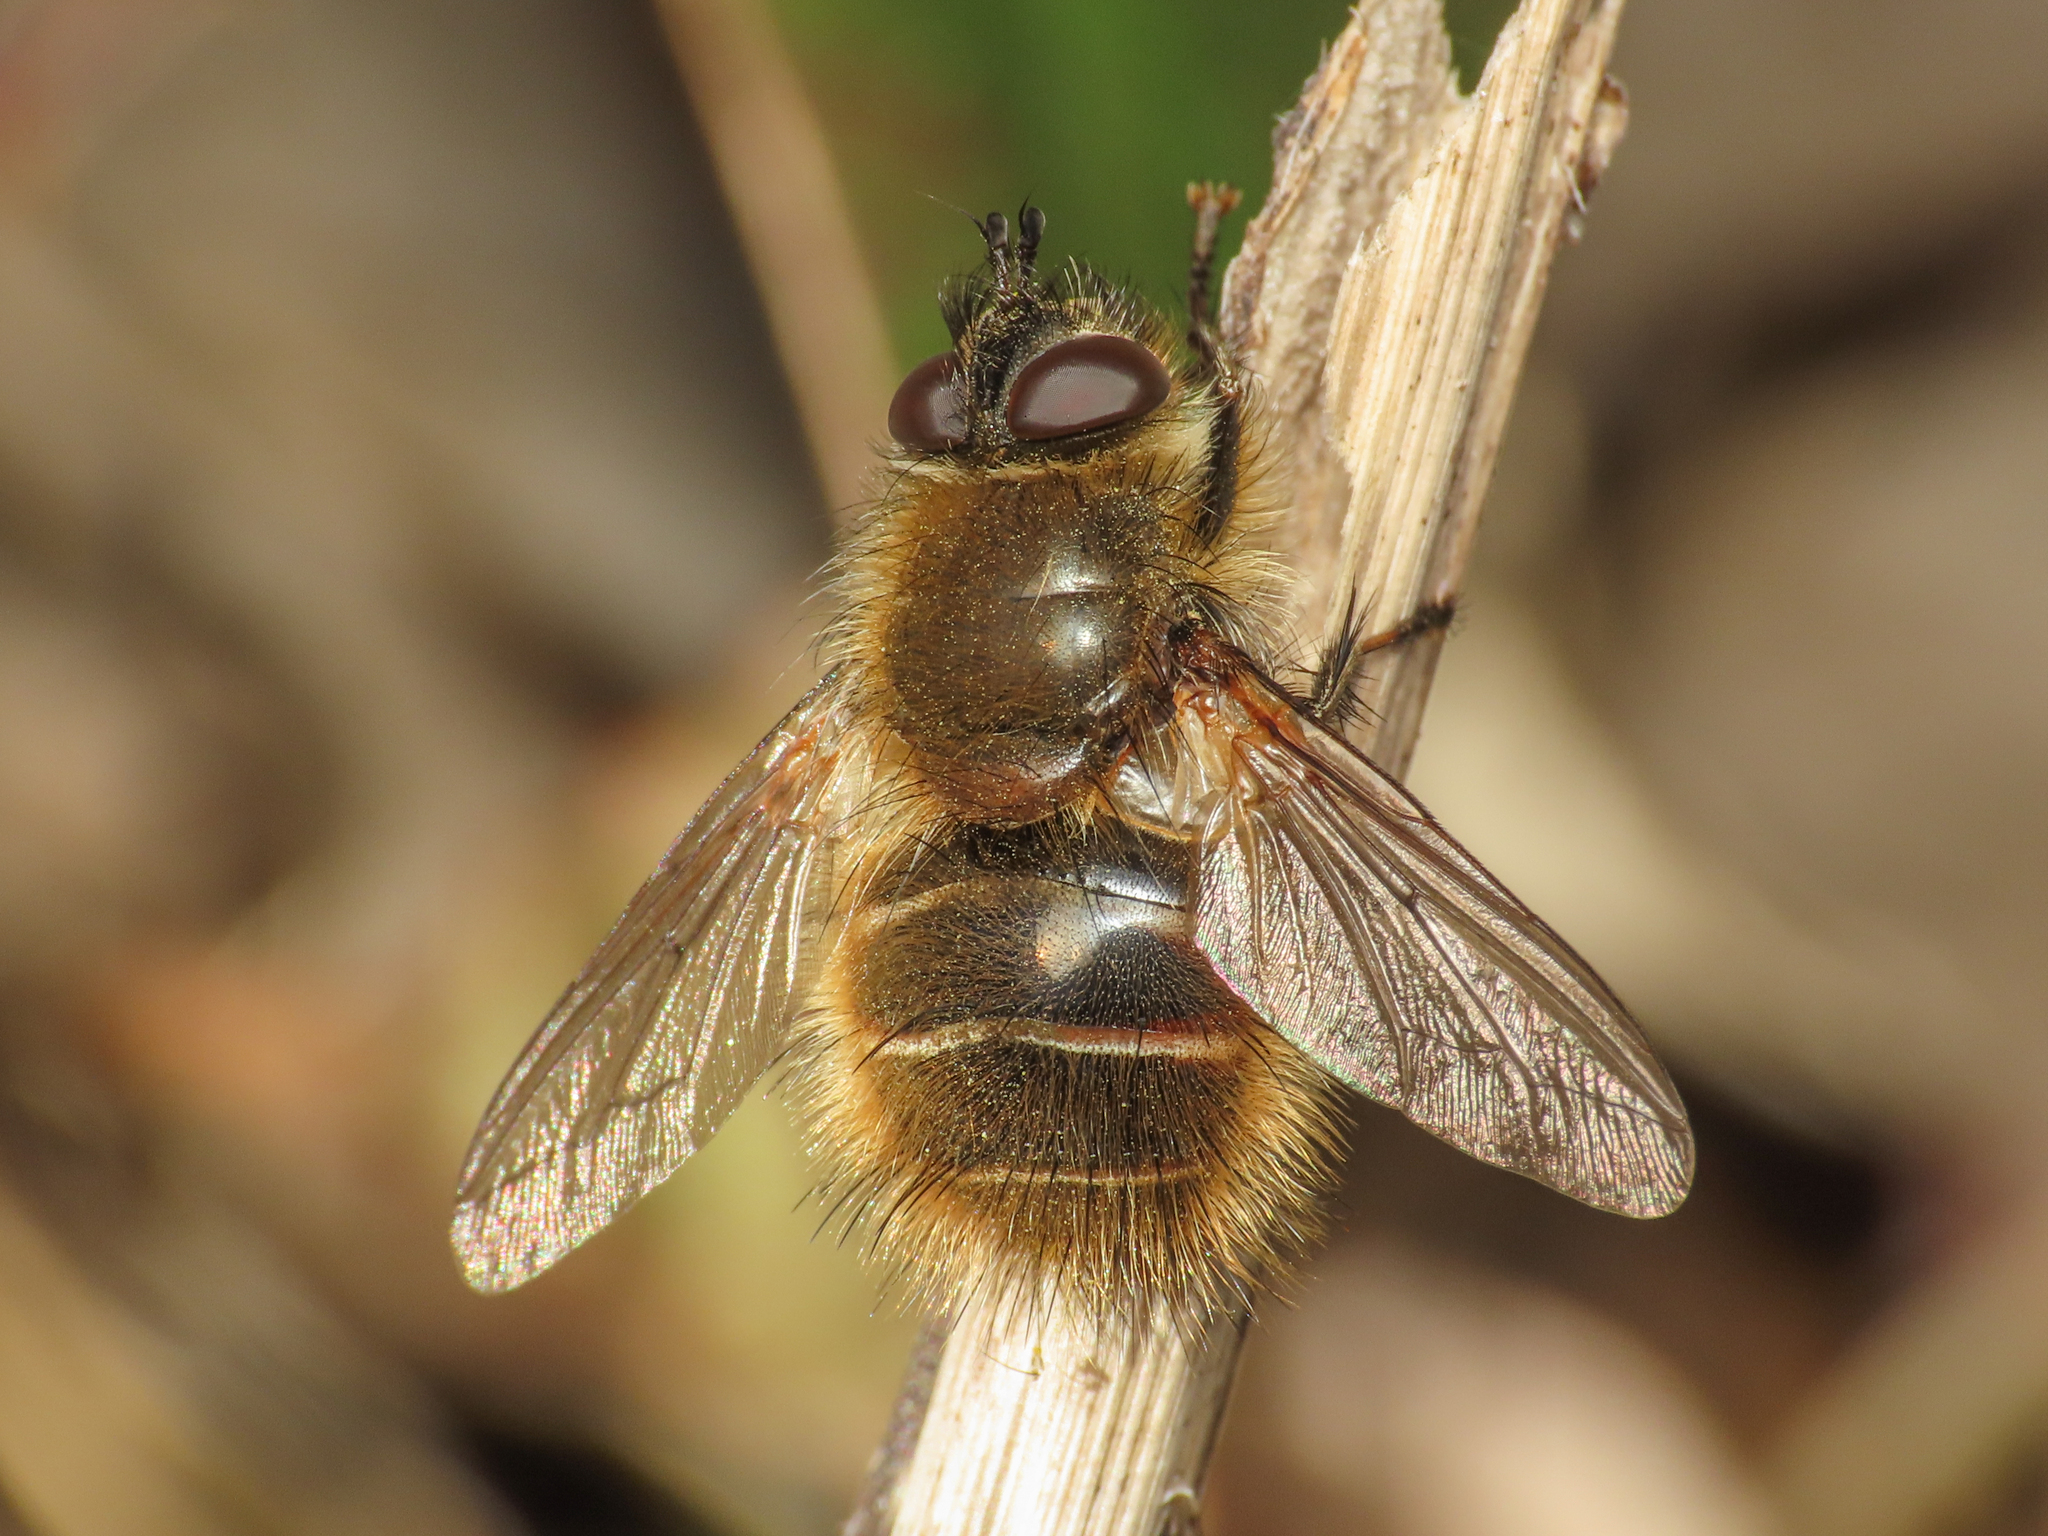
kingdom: Animalia
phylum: Arthropoda
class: Insecta
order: Diptera
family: Tachinidae
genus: Tachina
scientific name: Tachina ursina
